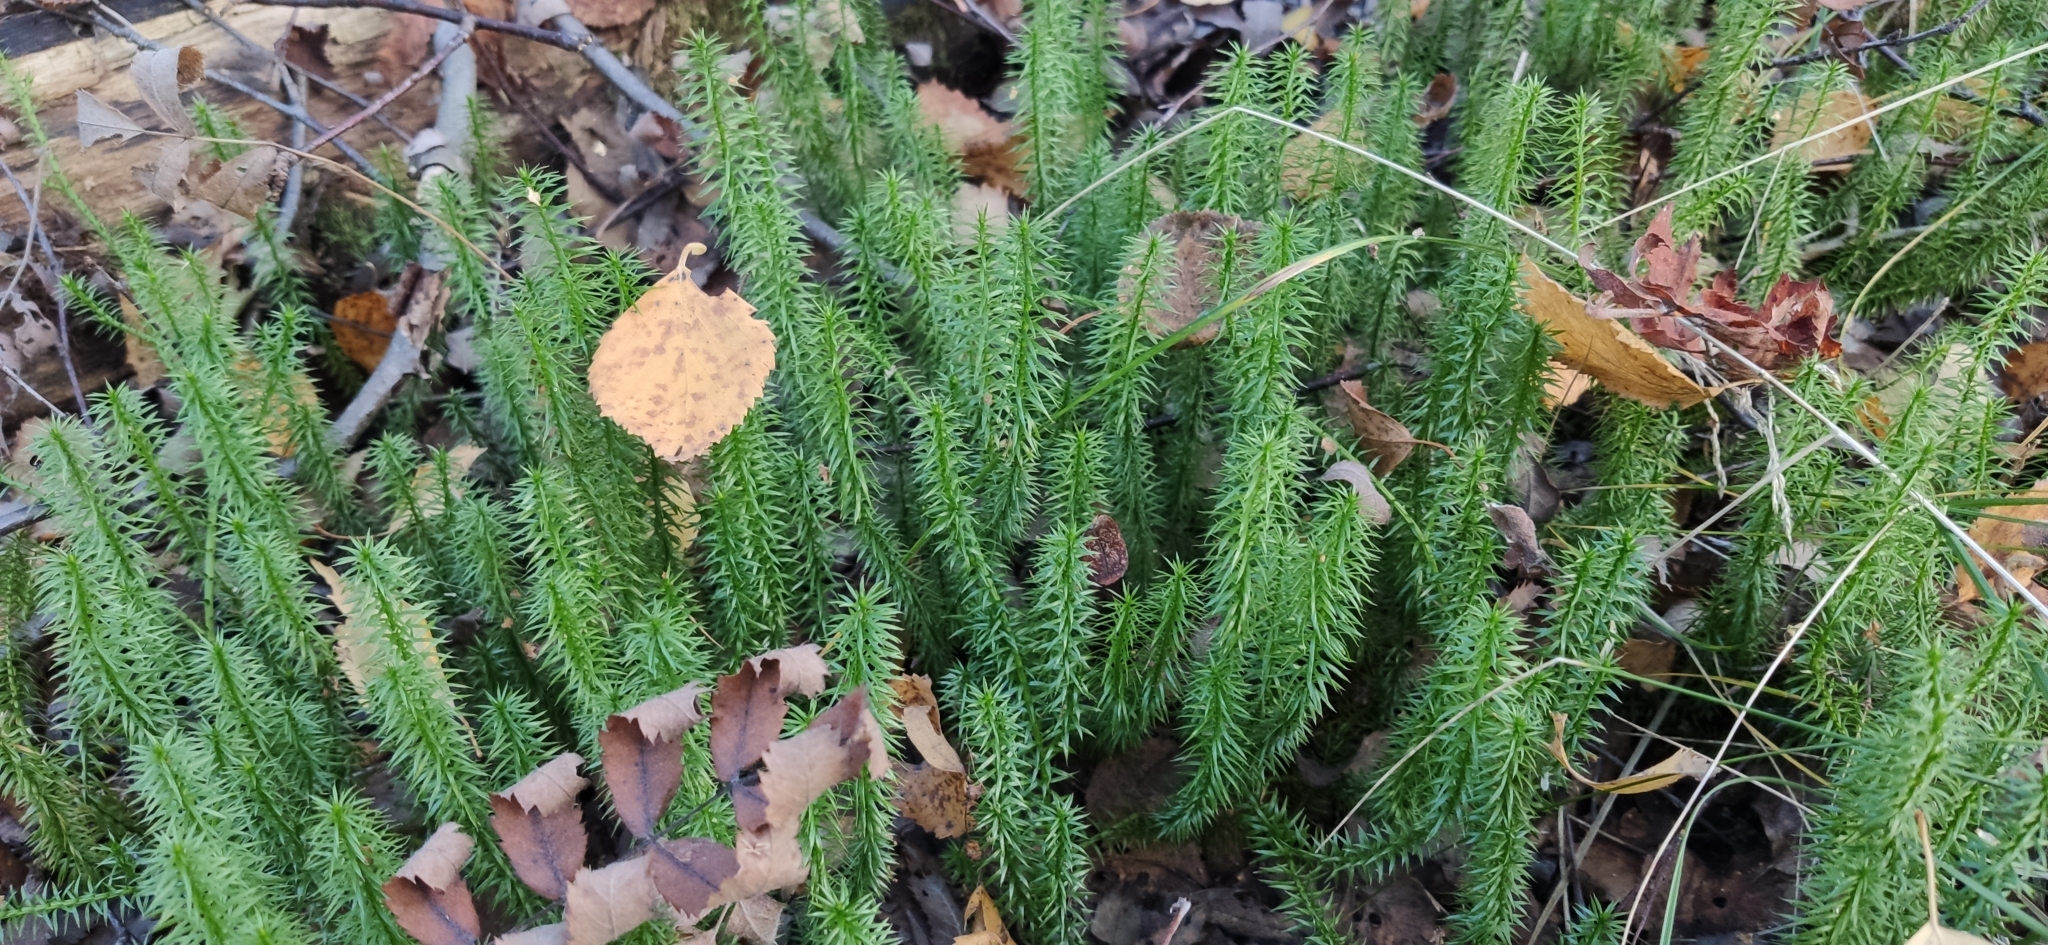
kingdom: Plantae
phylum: Tracheophyta
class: Lycopodiopsida
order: Lycopodiales
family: Lycopodiaceae
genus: Spinulum
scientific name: Spinulum annotinum
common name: Interrupted club-moss
